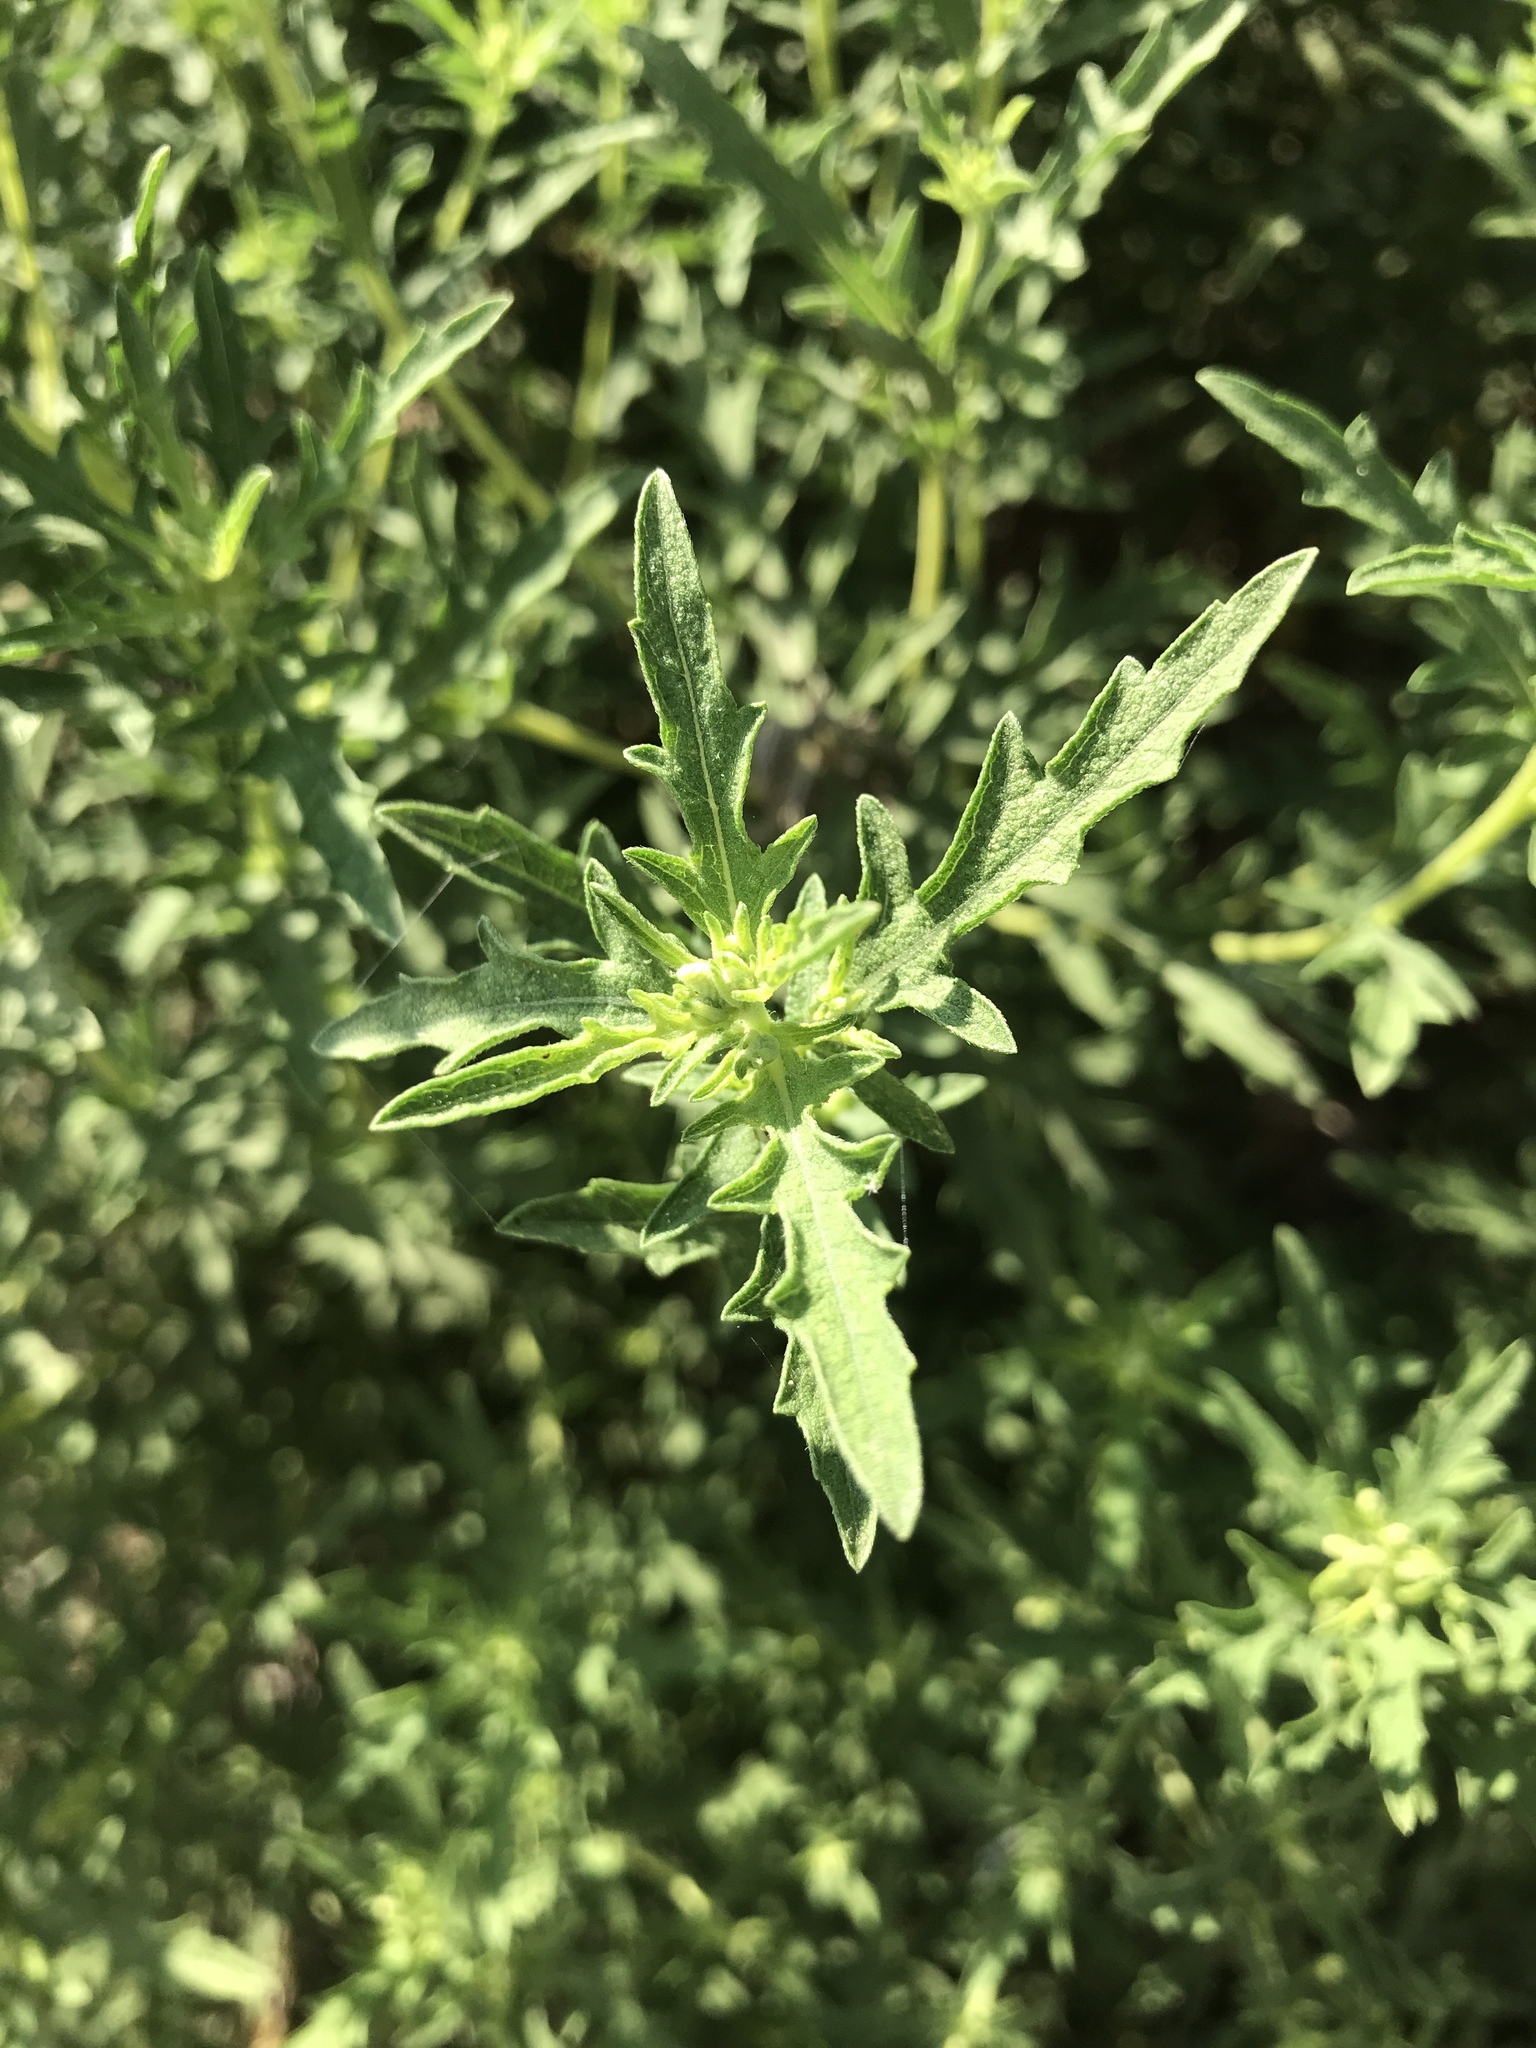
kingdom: Plantae
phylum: Tracheophyta
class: Magnoliopsida
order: Asterales
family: Asteraceae
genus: Ambrosia
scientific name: Ambrosia psilostachya
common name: Perennial ragweed
